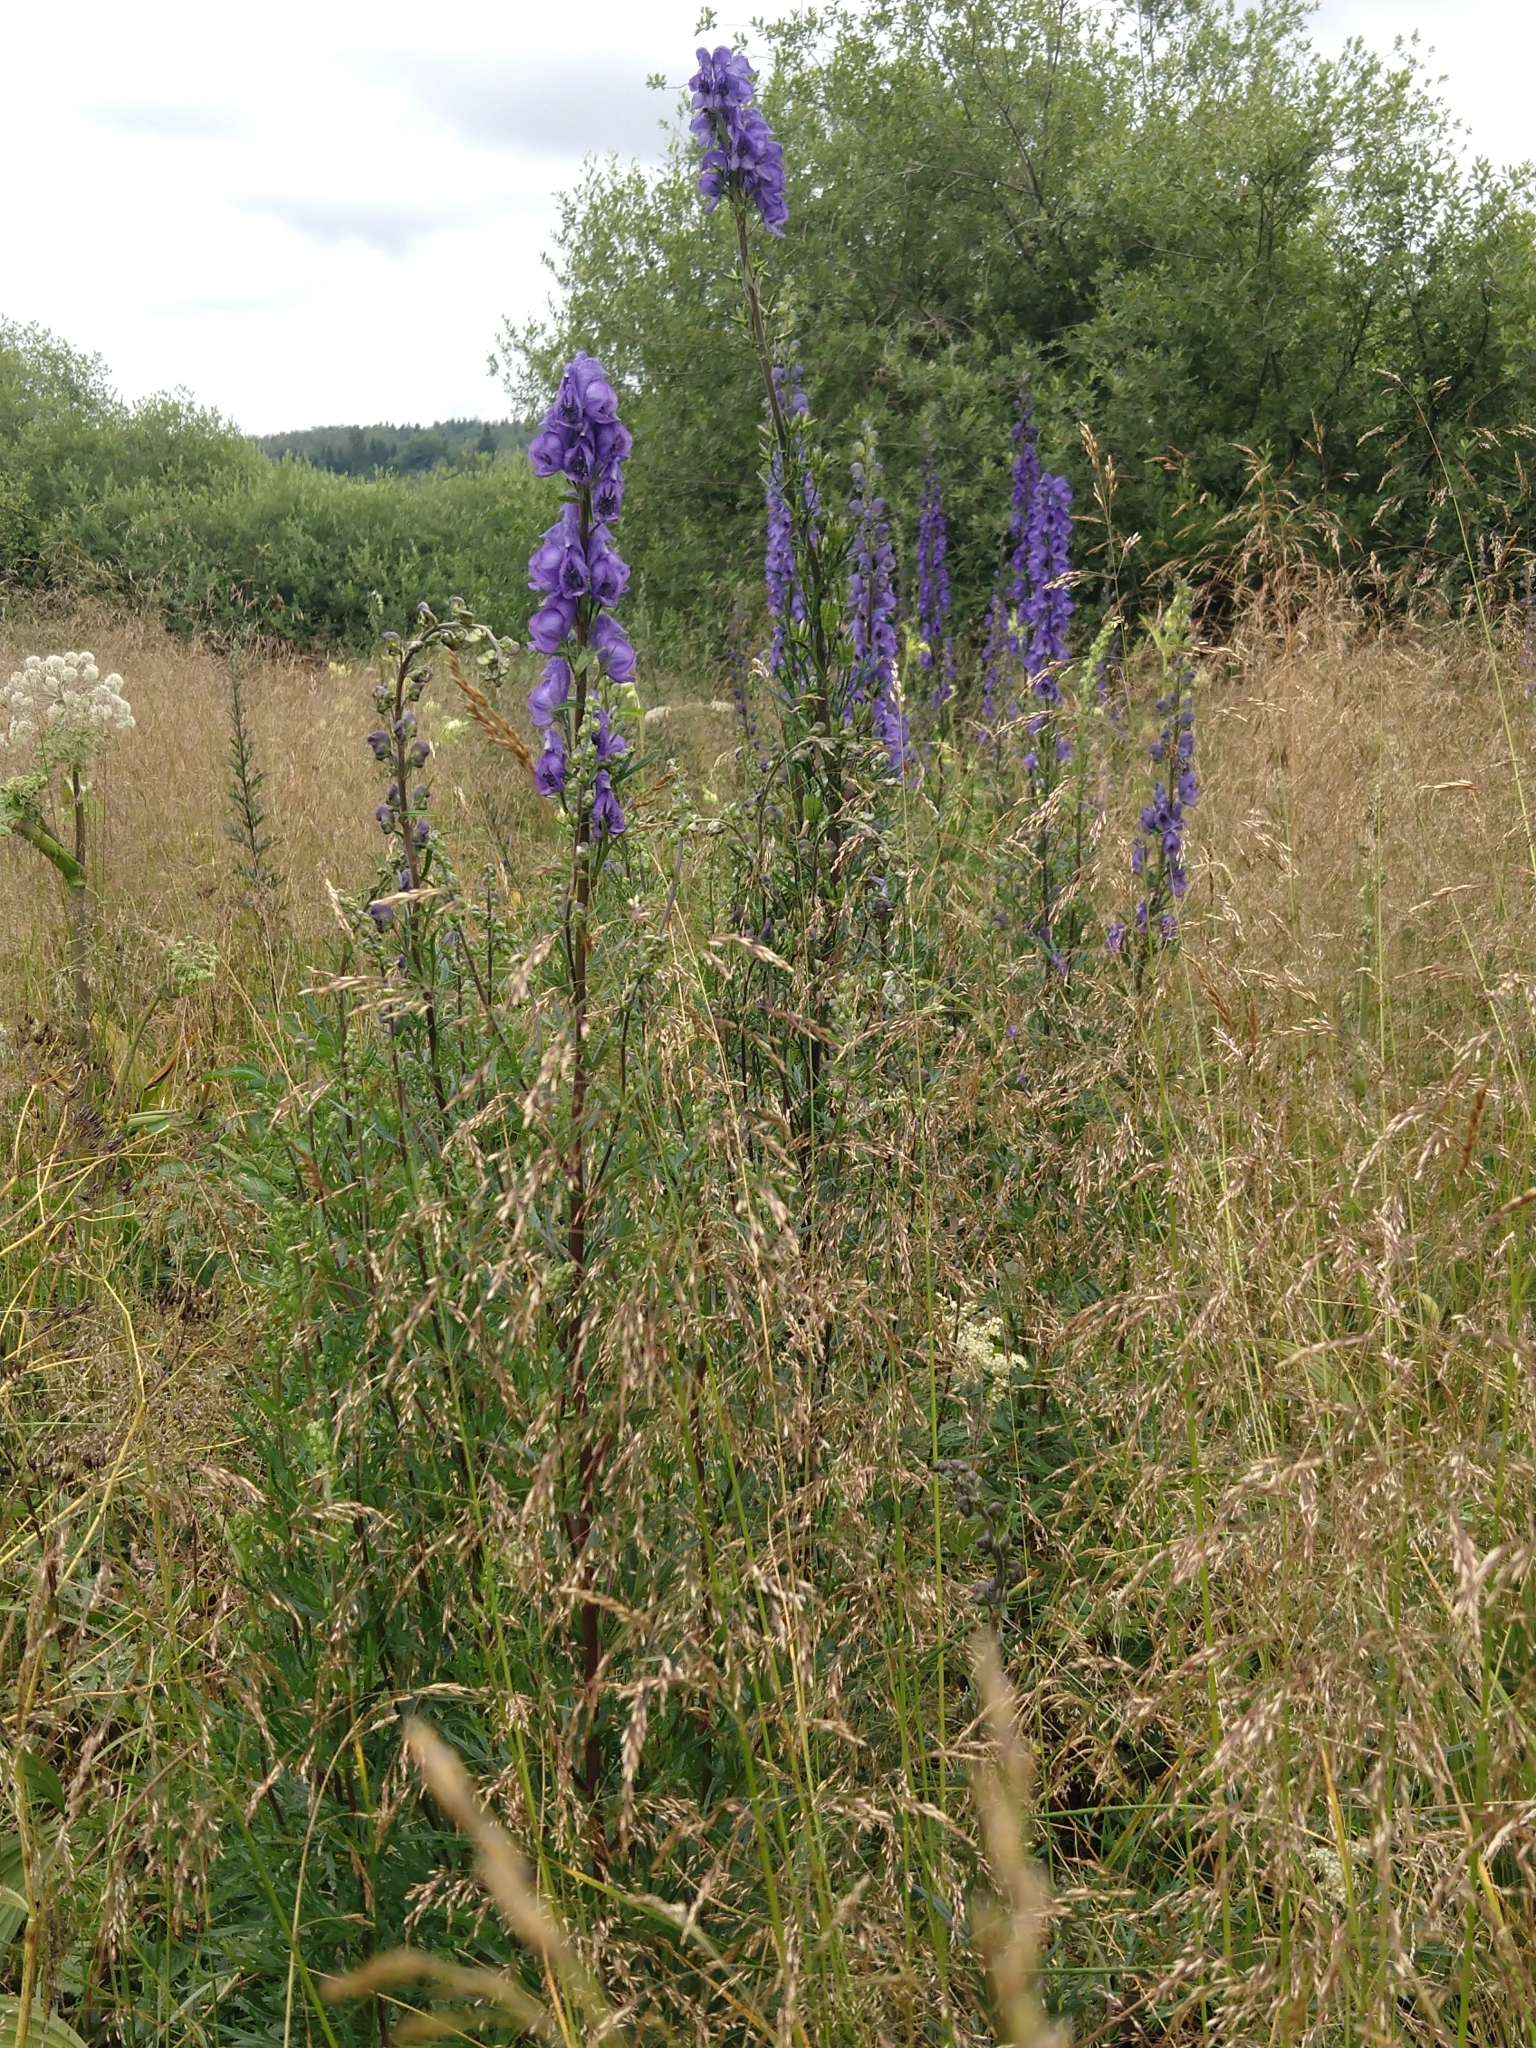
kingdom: Plantae
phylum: Tracheophyta
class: Magnoliopsida
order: Ranunculales
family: Ranunculaceae
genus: Aconitum
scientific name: Aconitum napellus
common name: Garden monkshood
